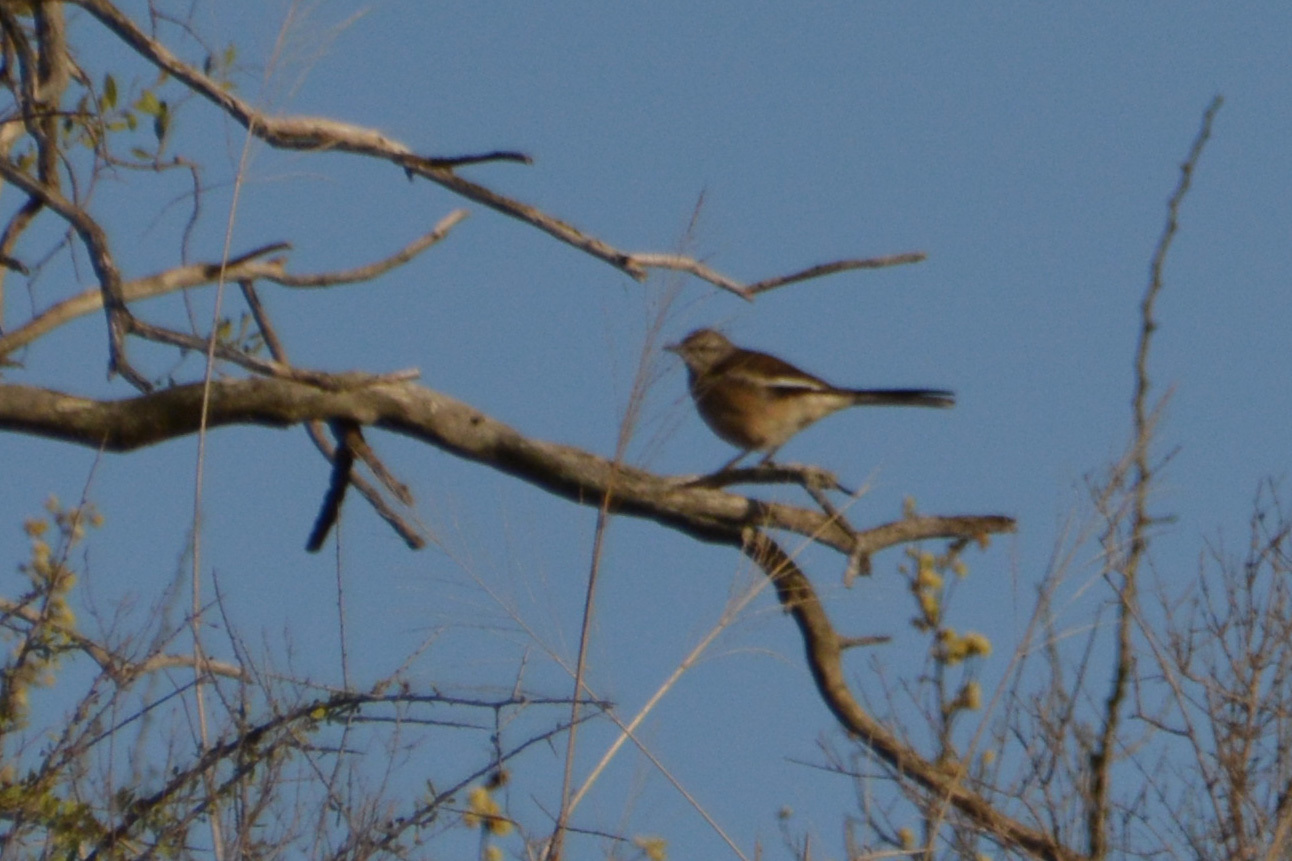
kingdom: Animalia
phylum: Chordata
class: Aves
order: Passeriformes
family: Mimidae
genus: Mimus
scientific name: Mimus triurus
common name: White-banded mockingbird
